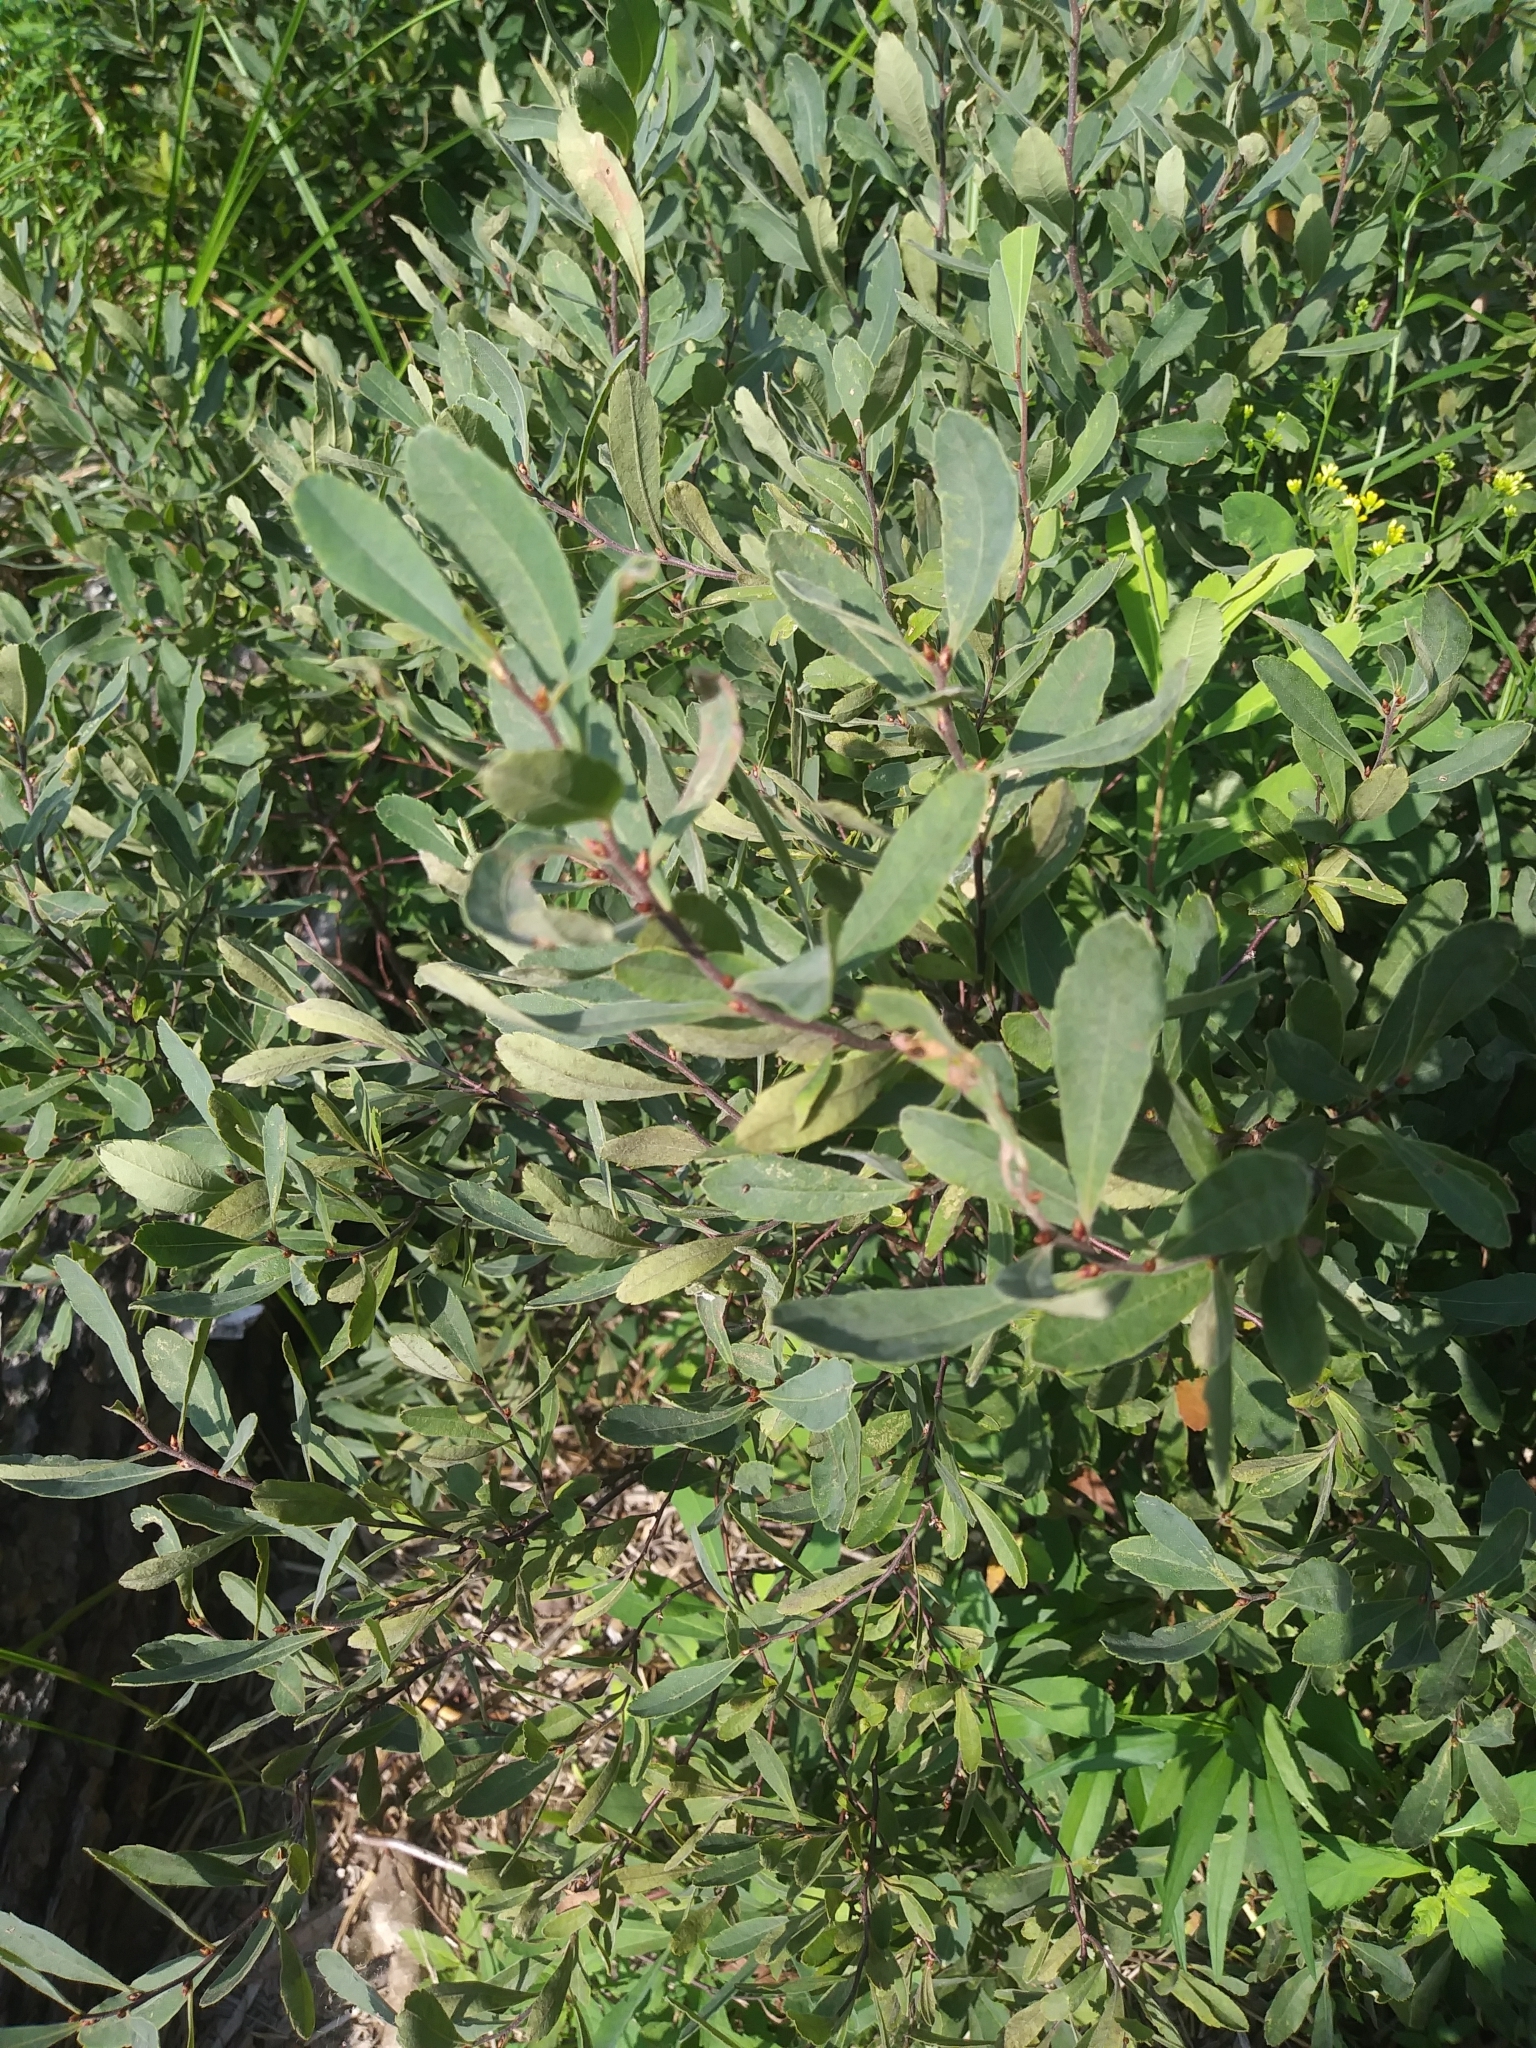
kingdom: Plantae
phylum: Tracheophyta
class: Magnoliopsida
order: Fagales
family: Myricaceae
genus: Myrica
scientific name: Myrica gale
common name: Sweet gale
